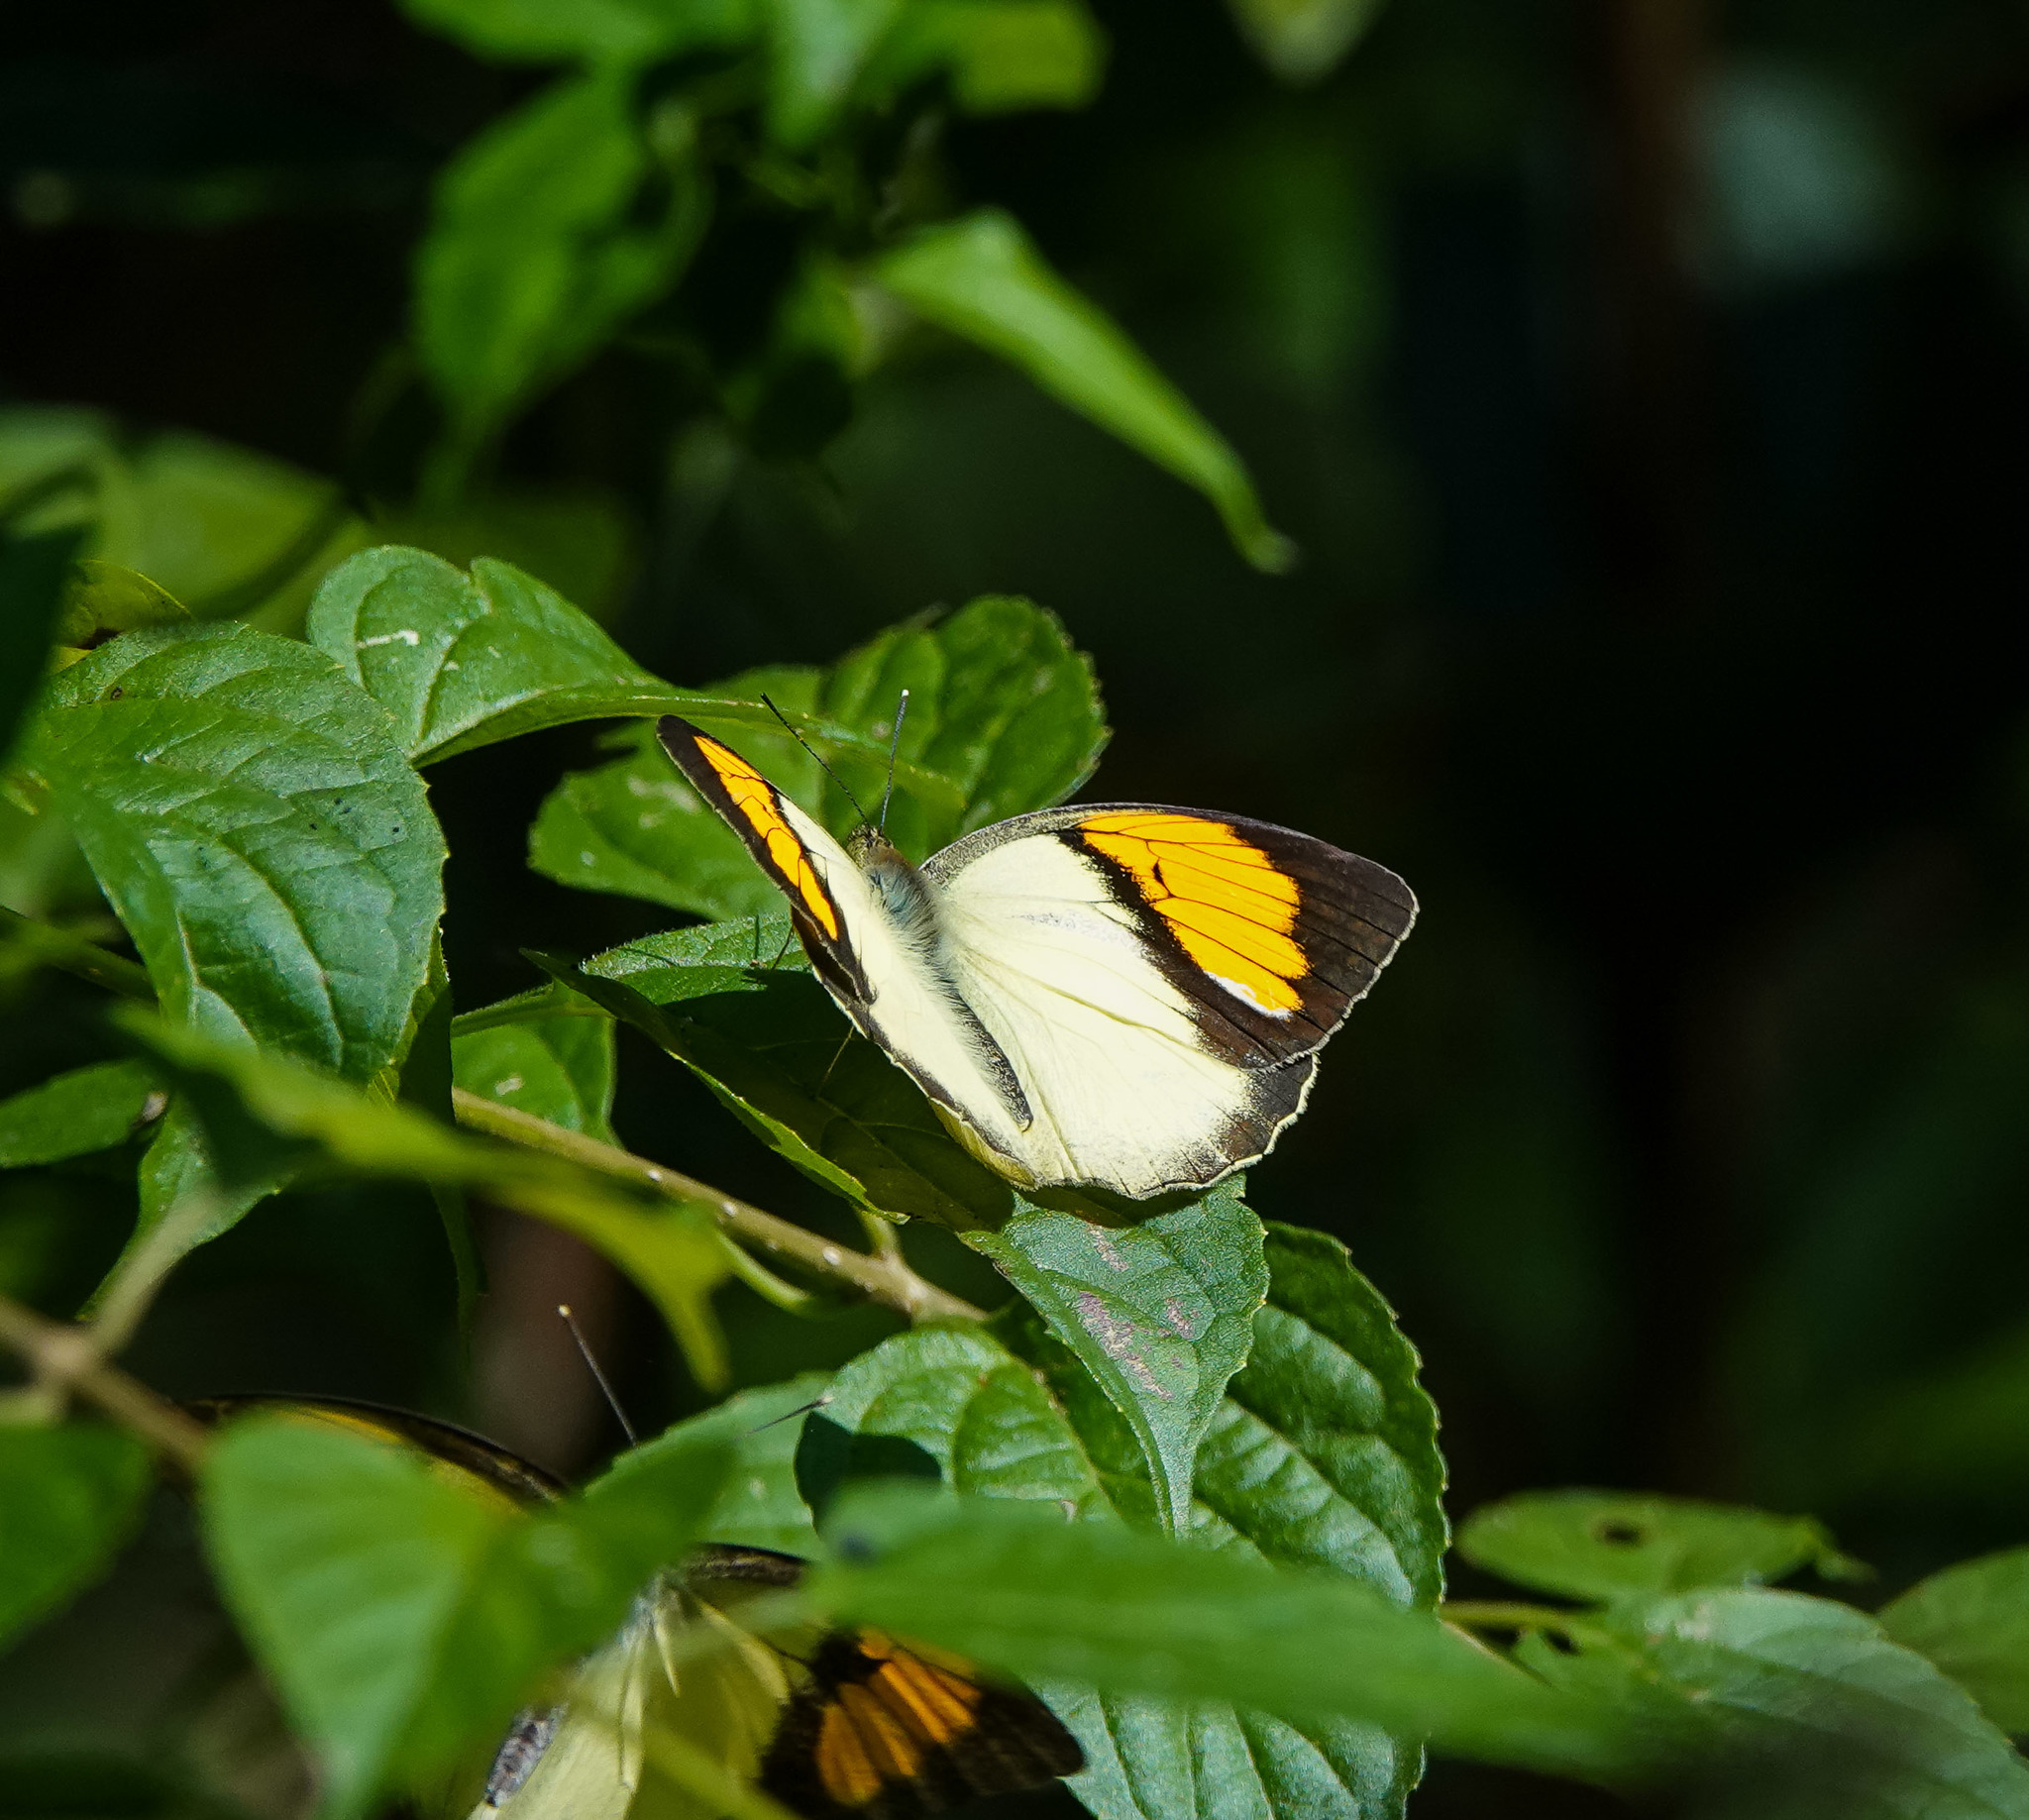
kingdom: Animalia
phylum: Arthropoda
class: Insecta
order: Lepidoptera
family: Pieridae
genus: Ixias
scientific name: Ixias pyrene
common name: Yellow orange tip
